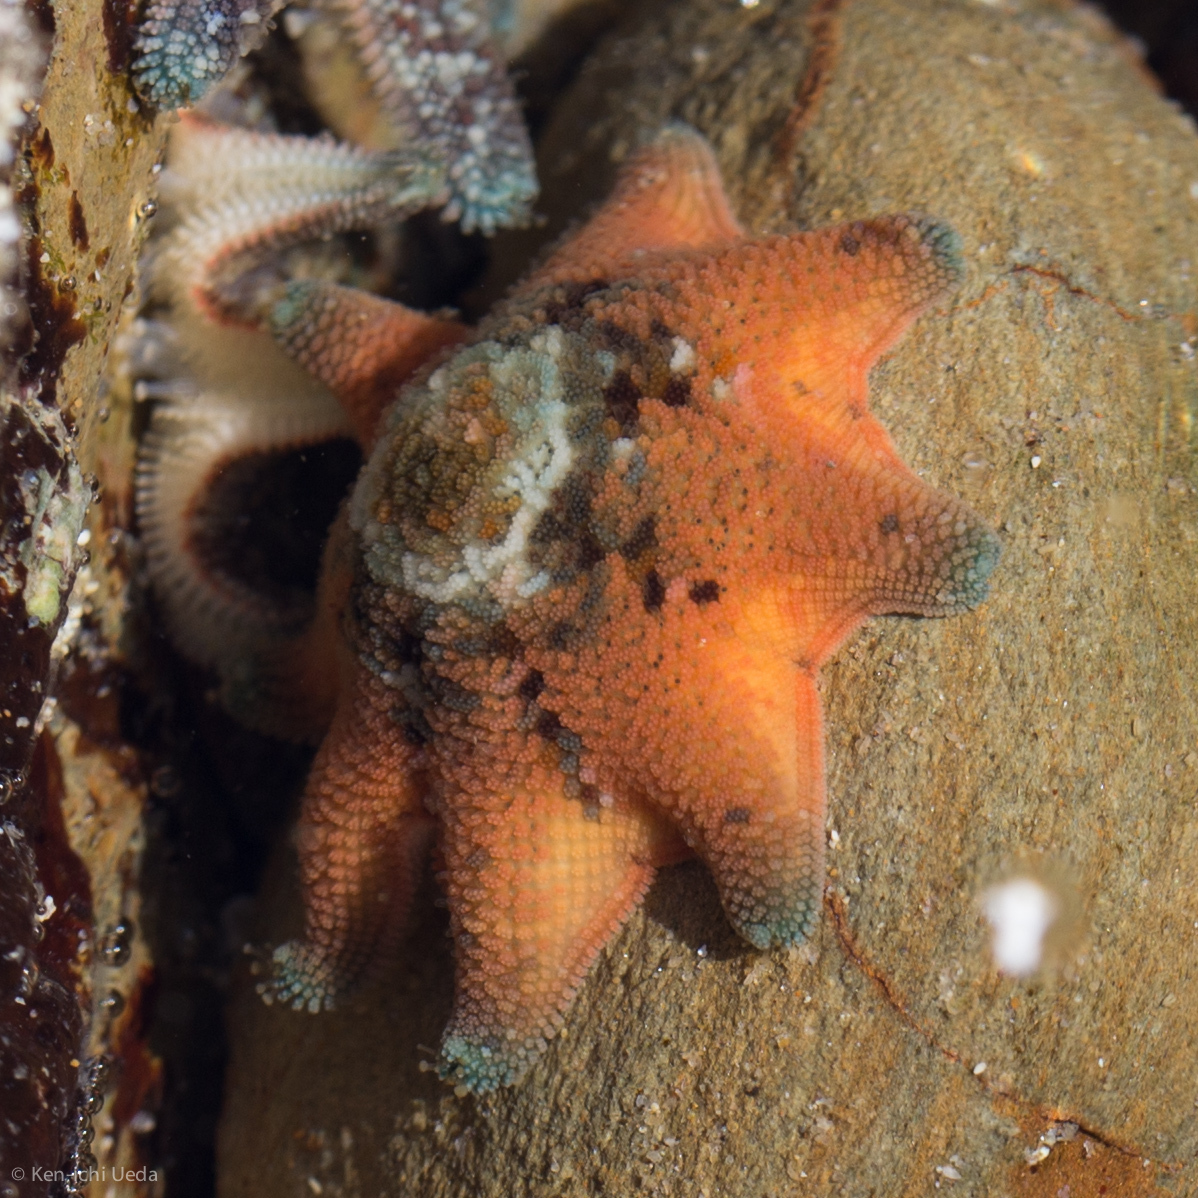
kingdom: Animalia
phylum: Echinodermata
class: Asteroidea
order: Valvatida
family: Asterinidae
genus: Meridiastra
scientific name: Meridiastra calcar
